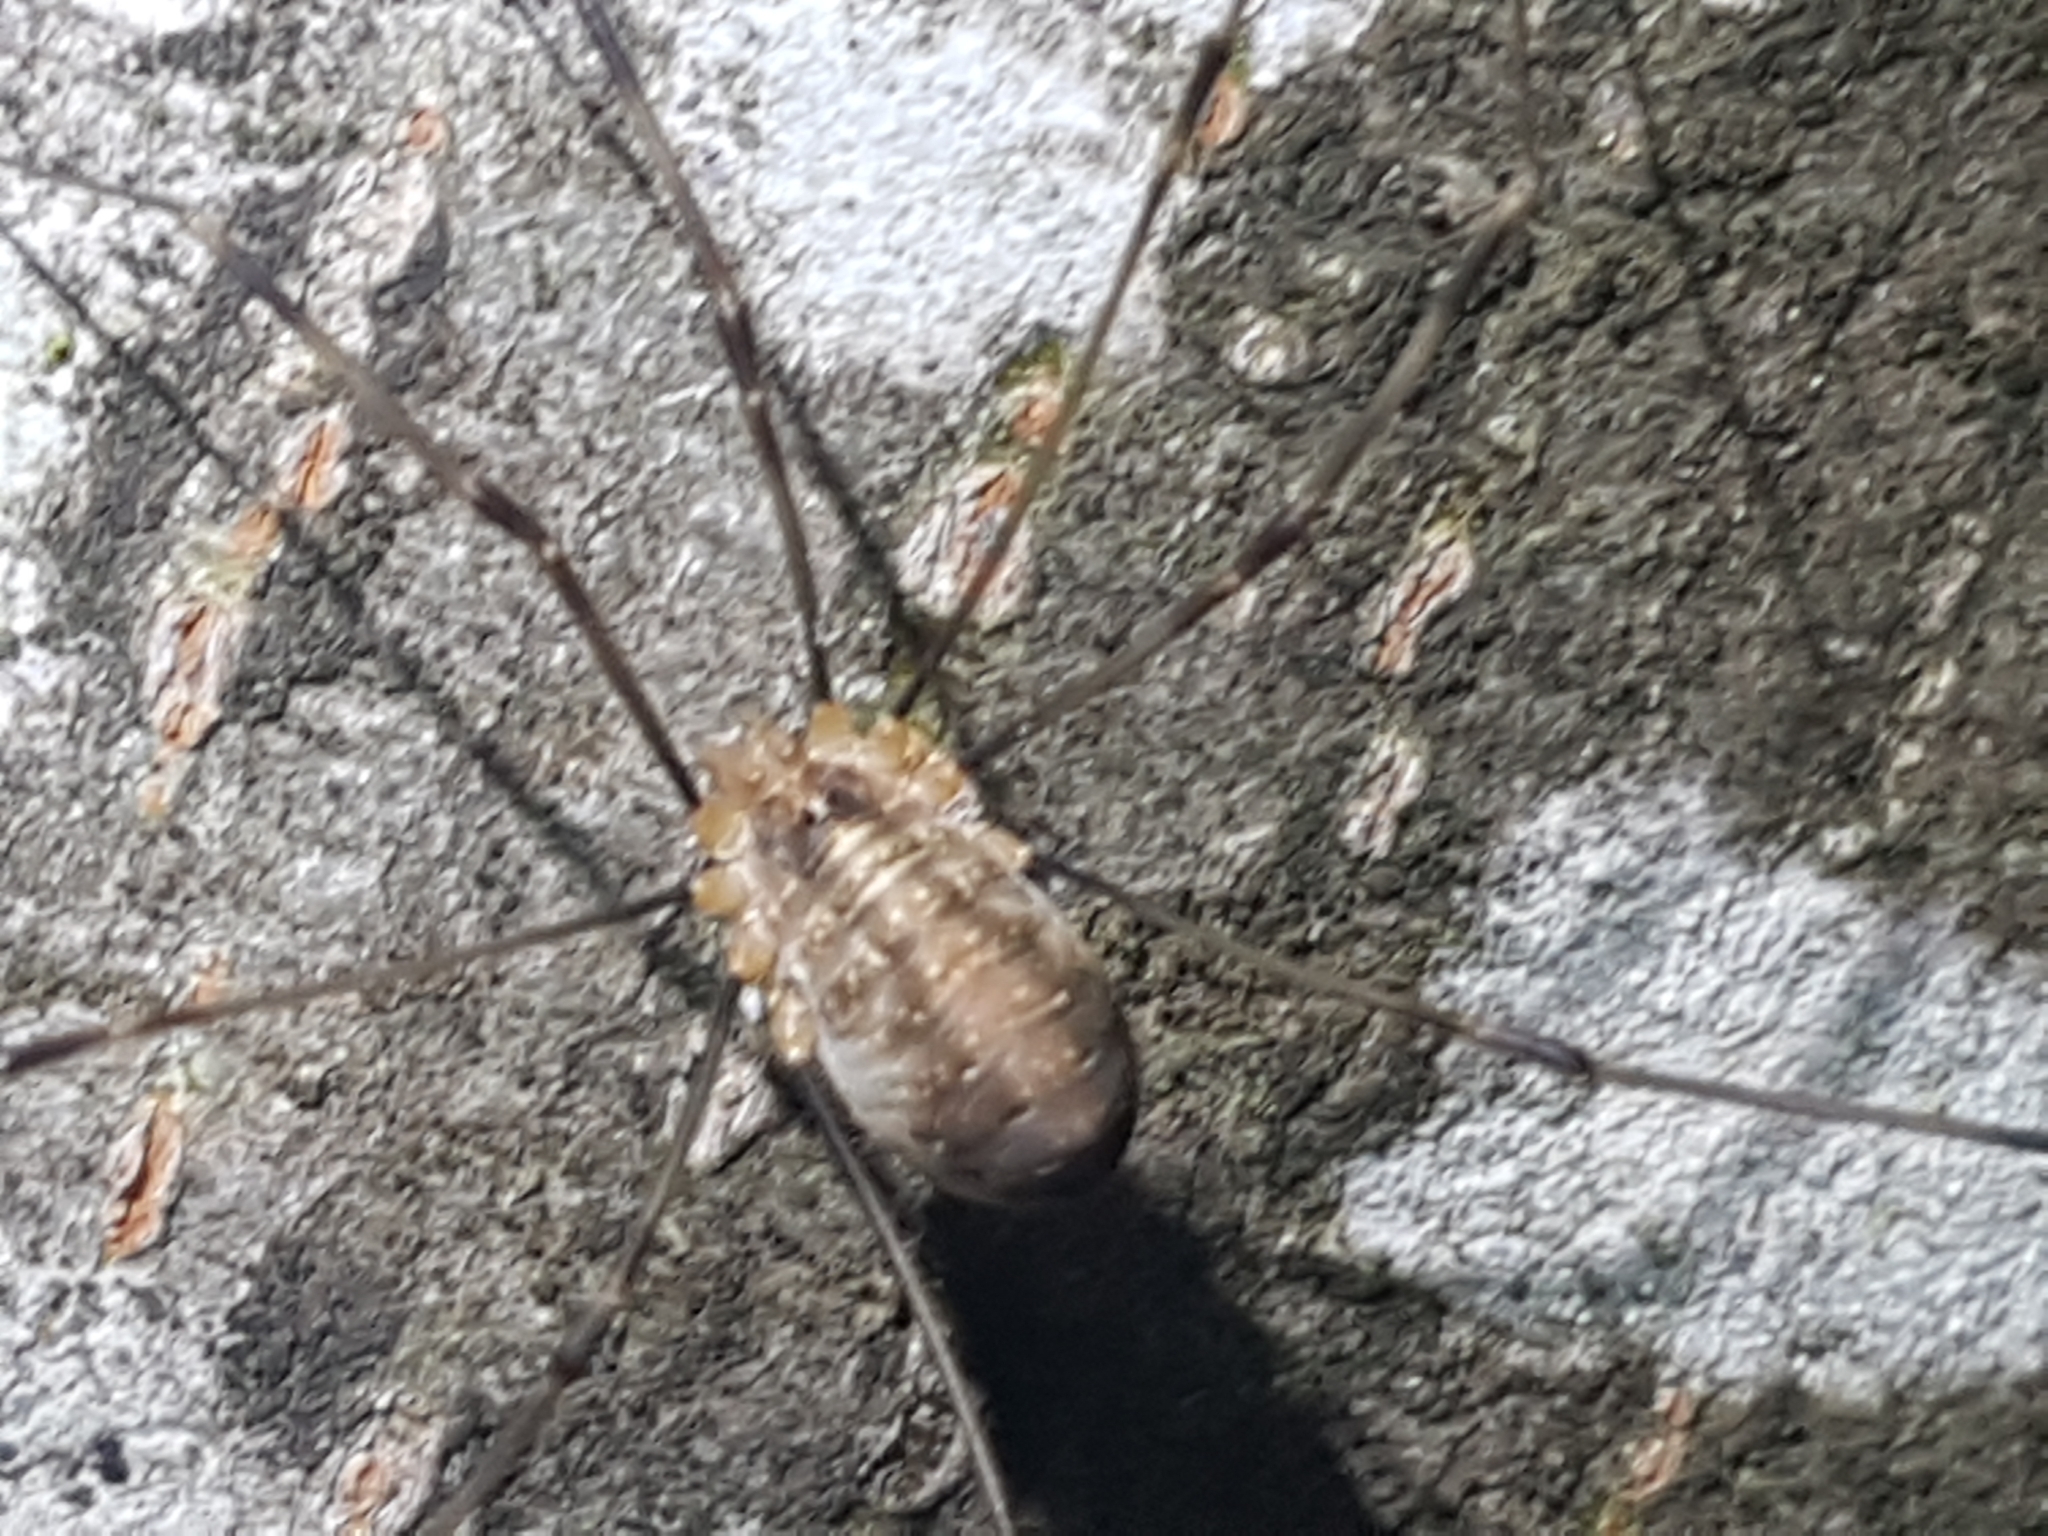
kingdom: Animalia
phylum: Arthropoda
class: Arachnida
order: Opiliones
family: Phalangiidae
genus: Opilio
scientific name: Opilio canestrinii
